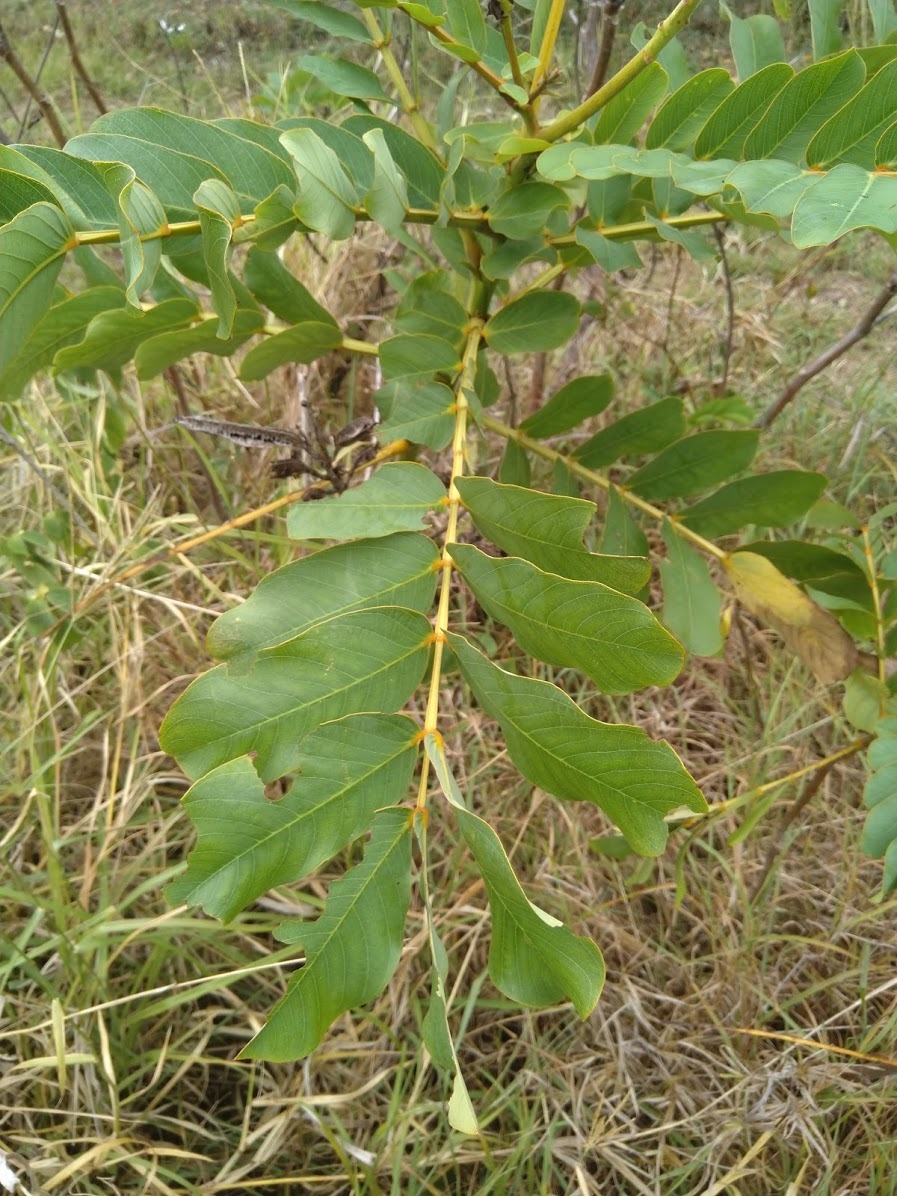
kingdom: Plantae
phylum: Tracheophyta
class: Magnoliopsida
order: Fabales
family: Fabaceae
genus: Senna
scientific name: Senna alata
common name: Emperor's candlesticks
